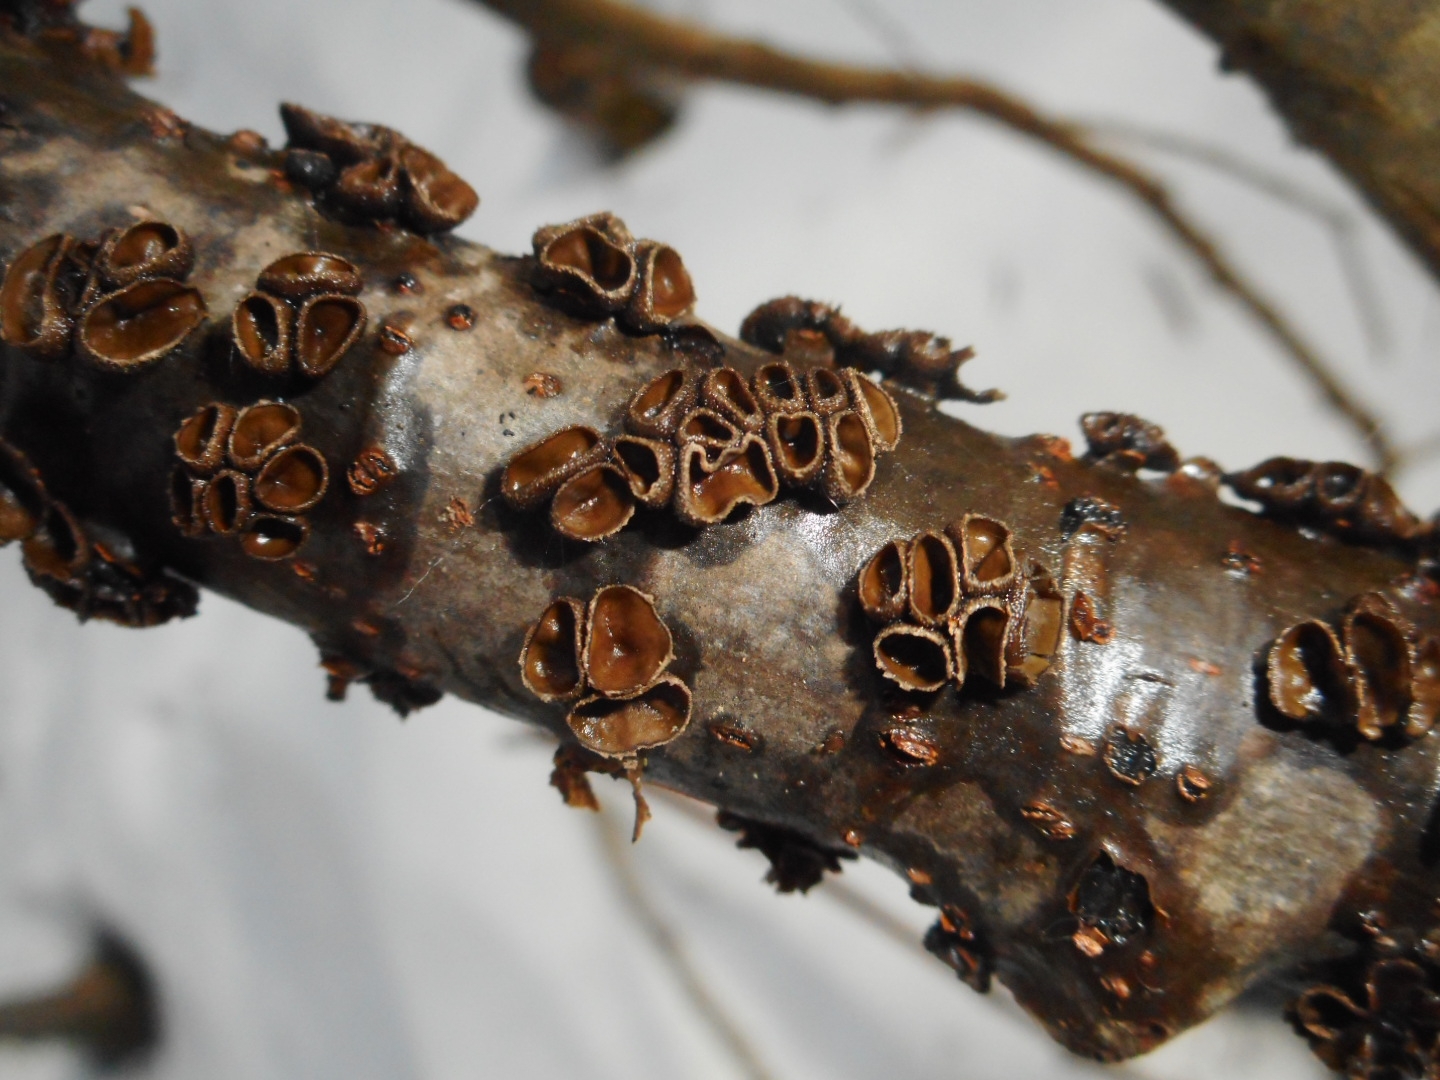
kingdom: Fungi
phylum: Ascomycota
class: Leotiomycetes
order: Helotiales
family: Sclerotiniaceae
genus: Sclerencoelia
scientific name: Sclerencoelia fascicularis
